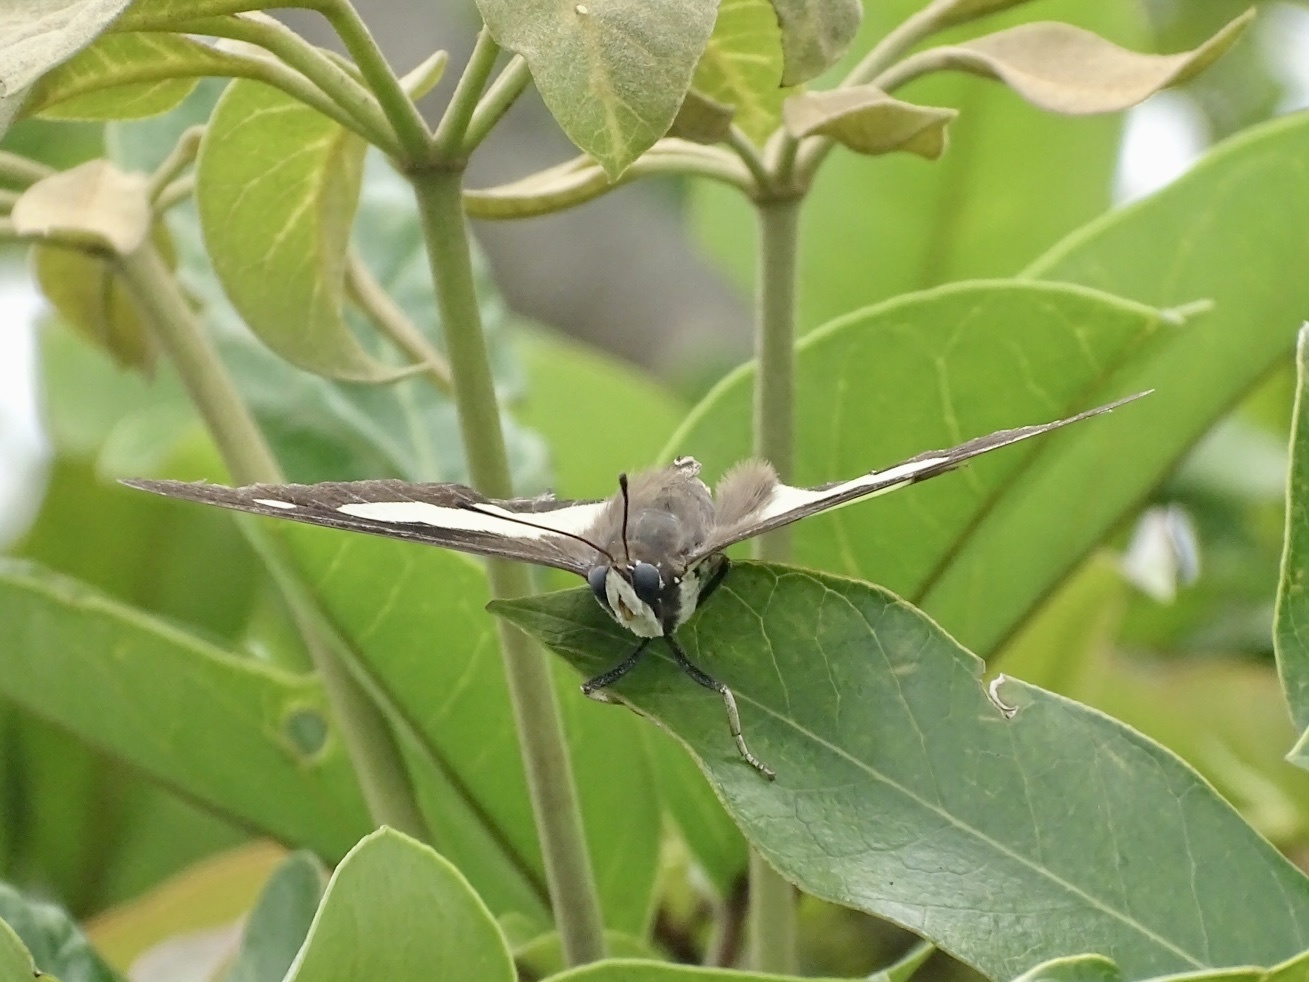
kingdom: Animalia
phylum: Arthropoda
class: Insecta
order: Lepidoptera
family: Nymphalidae
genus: Polyura
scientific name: Polyura athamas
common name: Common nawab
